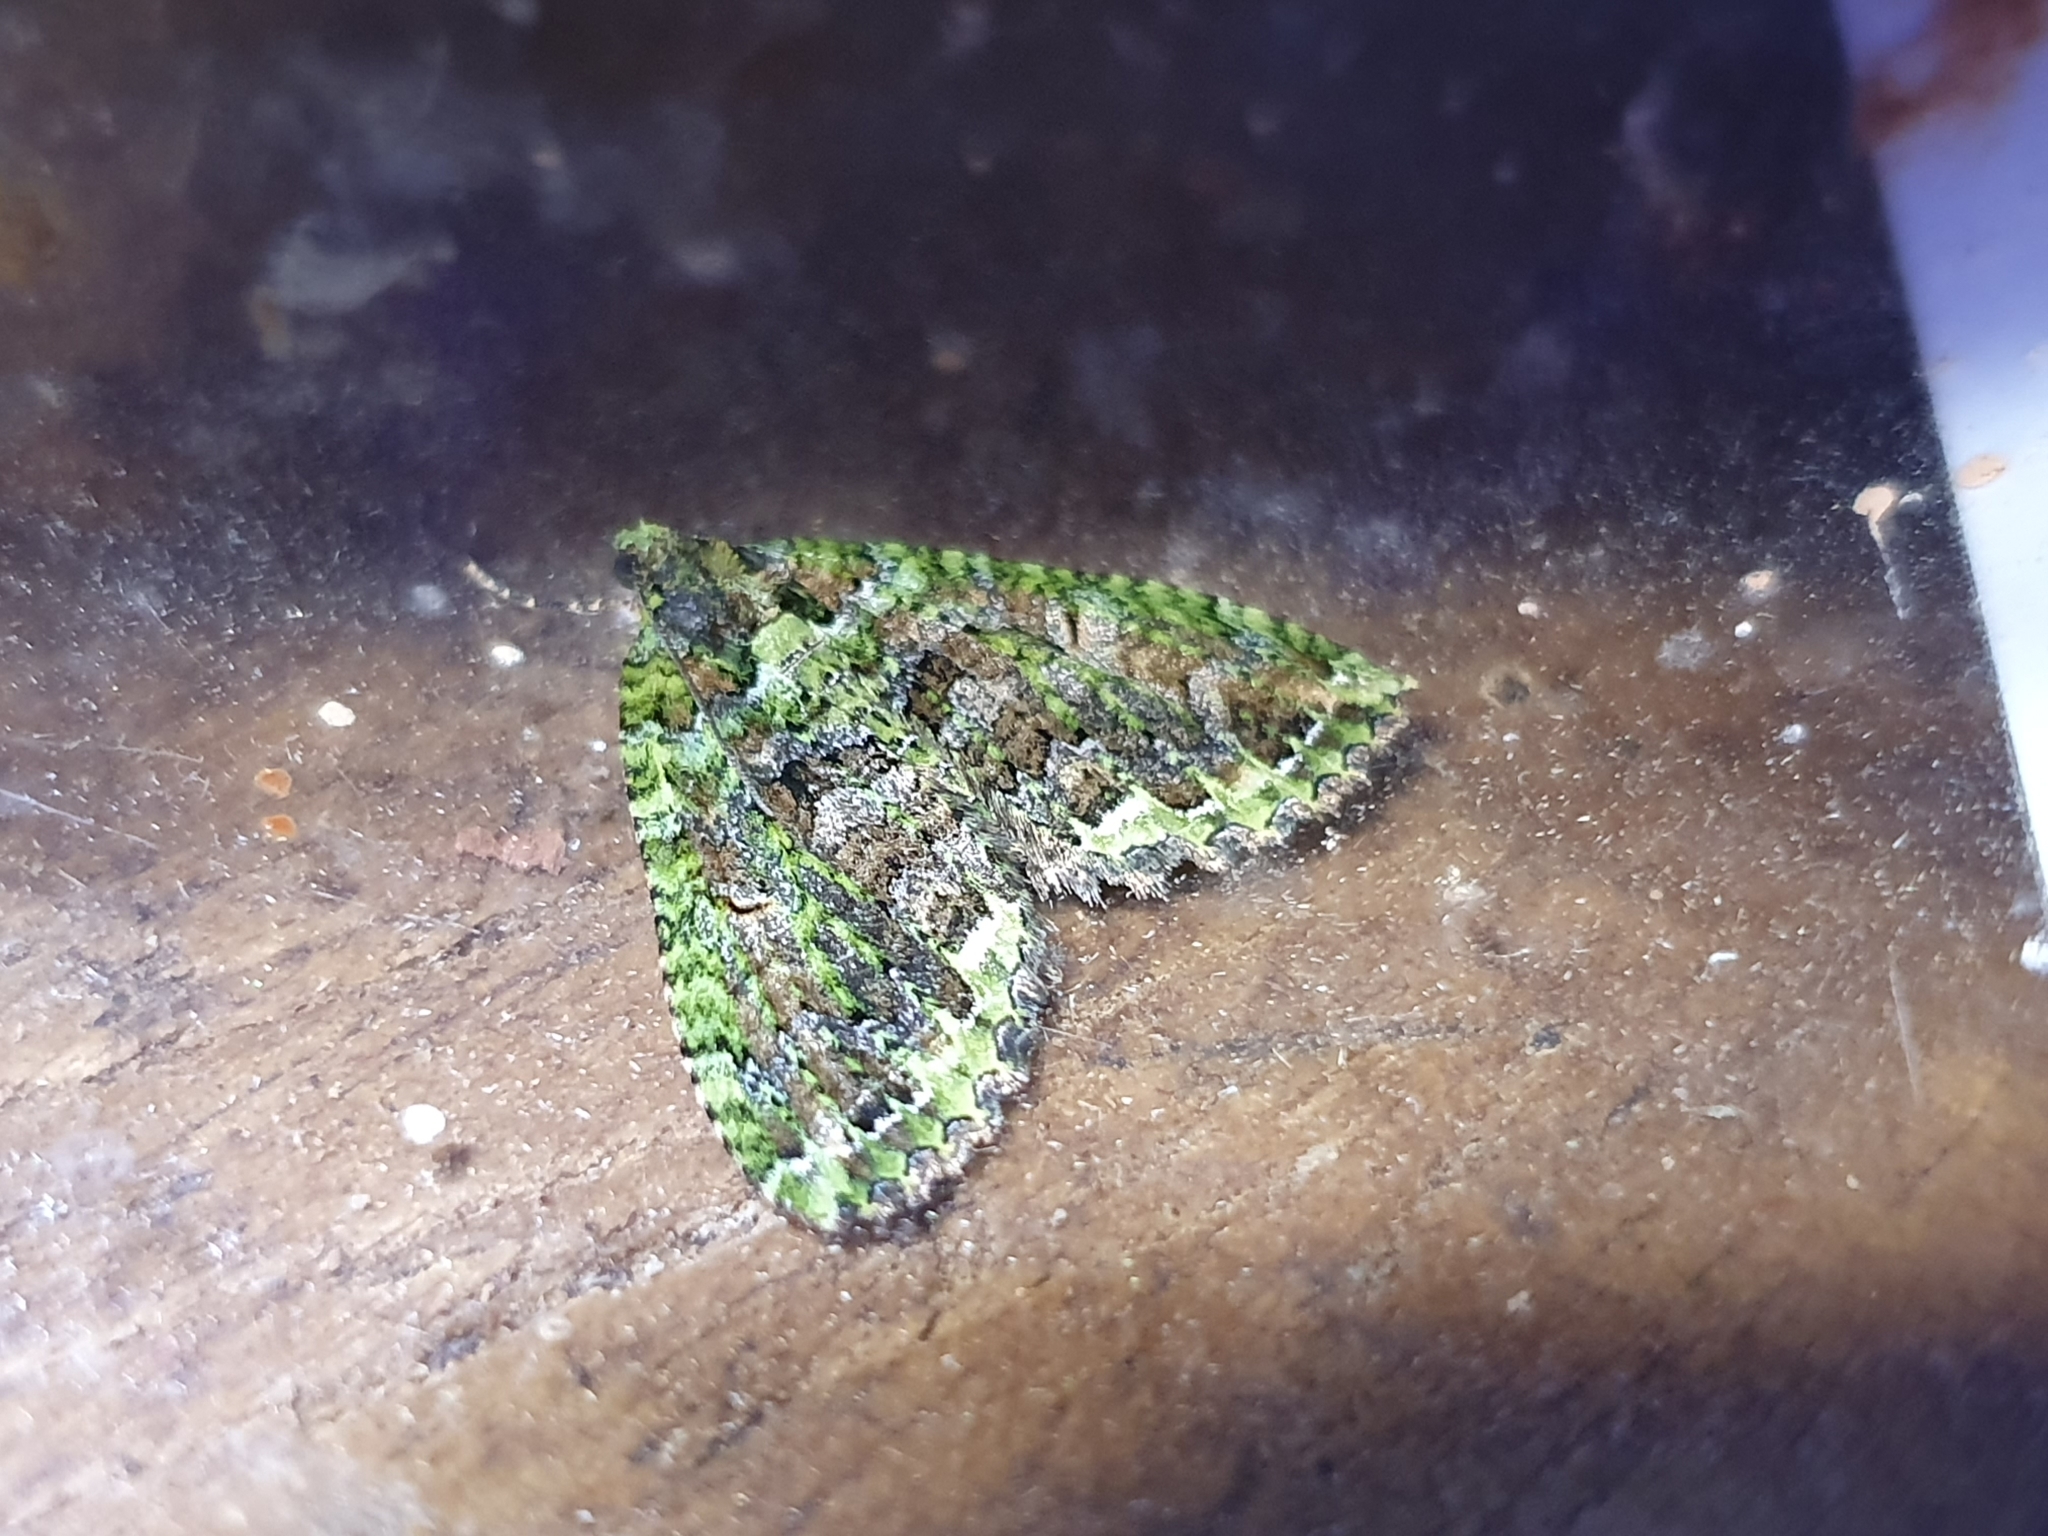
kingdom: Animalia
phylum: Arthropoda
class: Insecta
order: Lepidoptera
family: Geometridae
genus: Austrocidaria
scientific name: Austrocidaria similata
